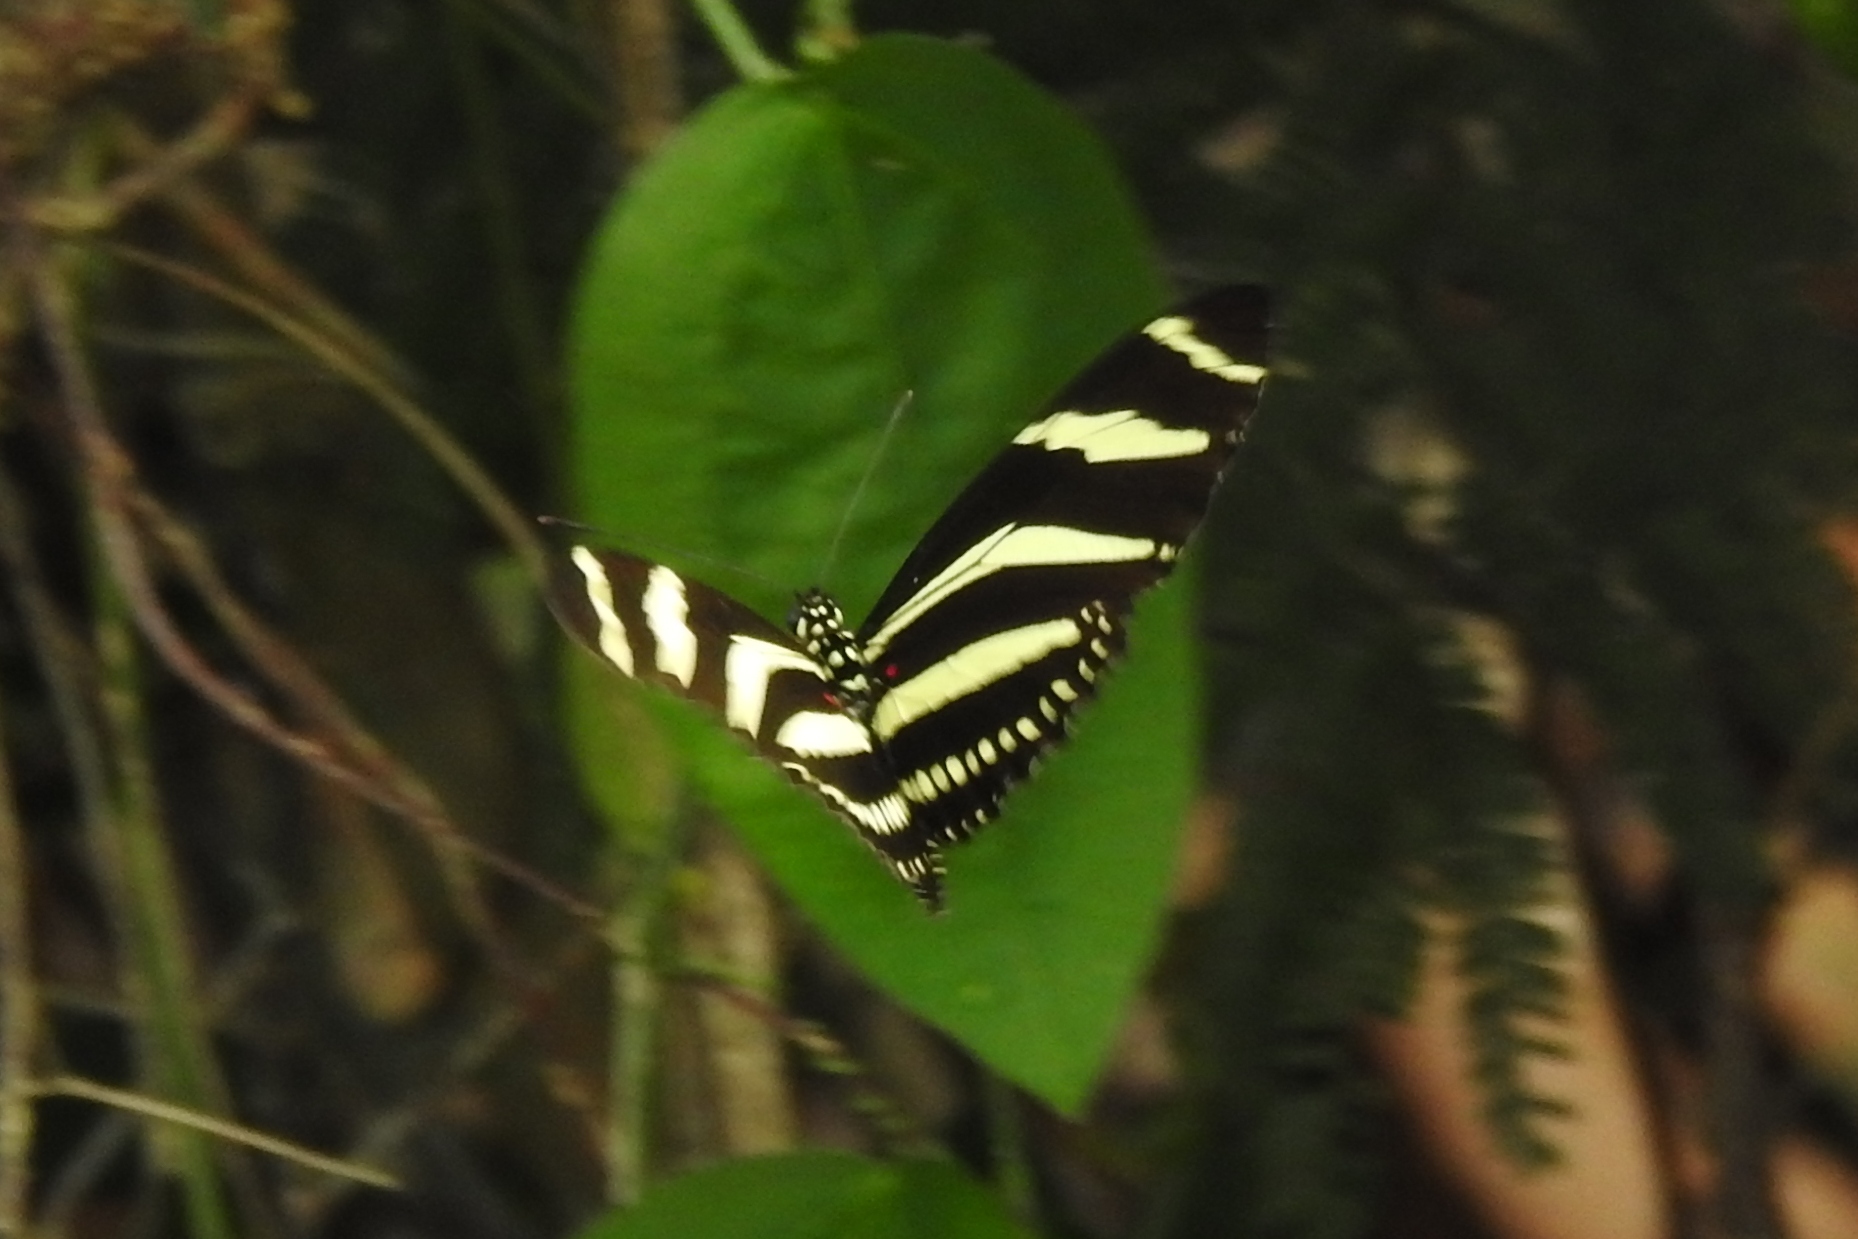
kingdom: Animalia
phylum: Arthropoda
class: Insecta
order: Lepidoptera
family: Nymphalidae
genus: Heliconius
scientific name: Heliconius charithonia
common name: Zebra long wing
